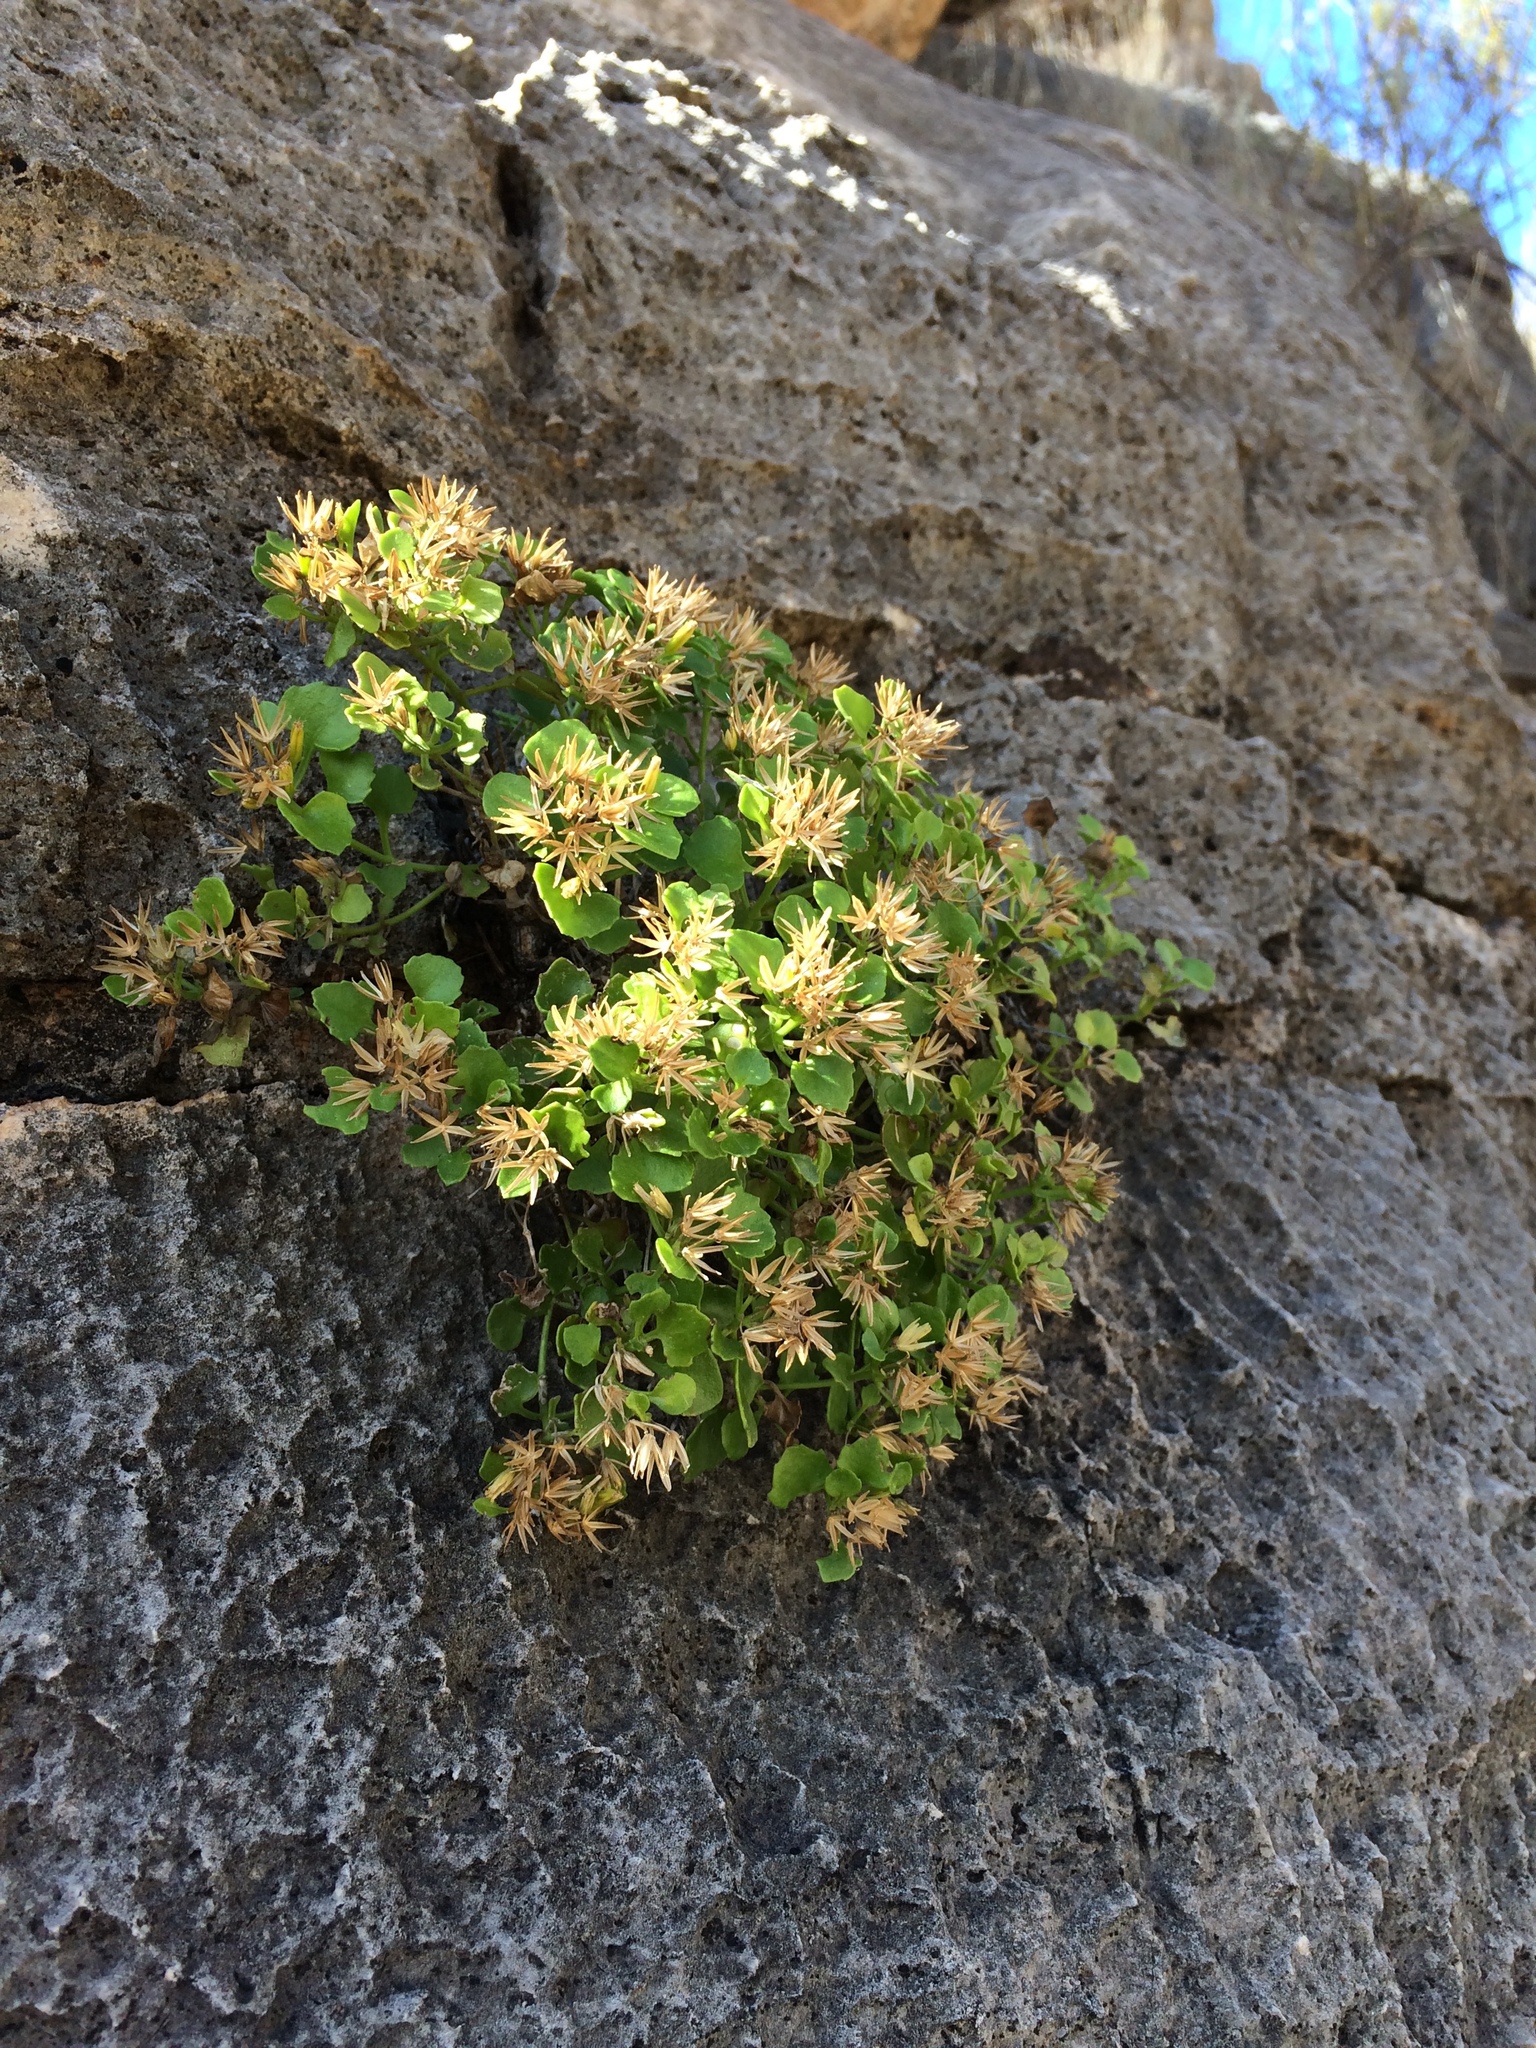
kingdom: Plantae
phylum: Tracheophyta
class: Magnoliopsida
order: Asterales
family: Asteraceae
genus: Laphamia
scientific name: Laphamia quinqueflora
